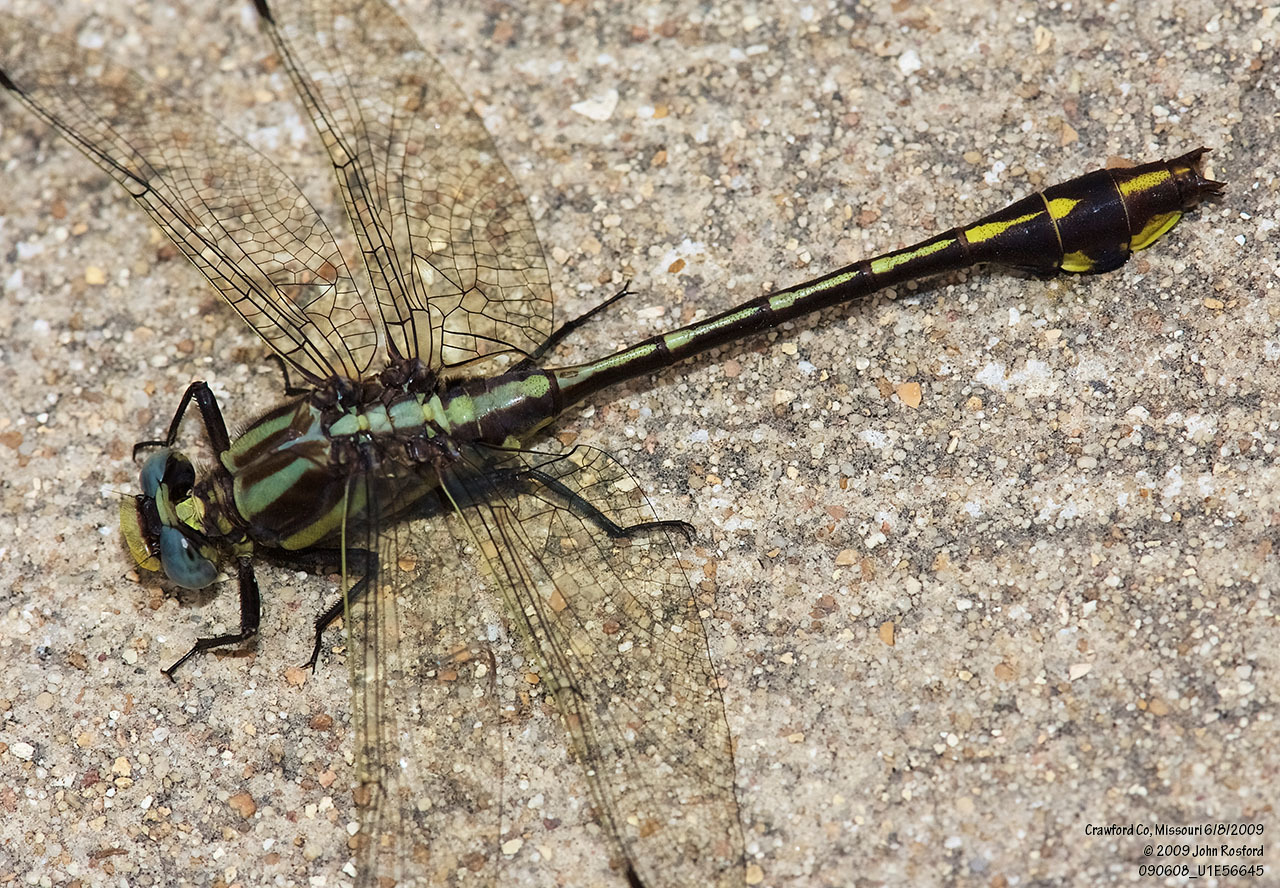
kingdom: Animalia
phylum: Arthropoda
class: Insecta
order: Odonata
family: Gomphidae
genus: Gomphurus
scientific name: Gomphurus ozarkensis
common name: Ozark clubtail
